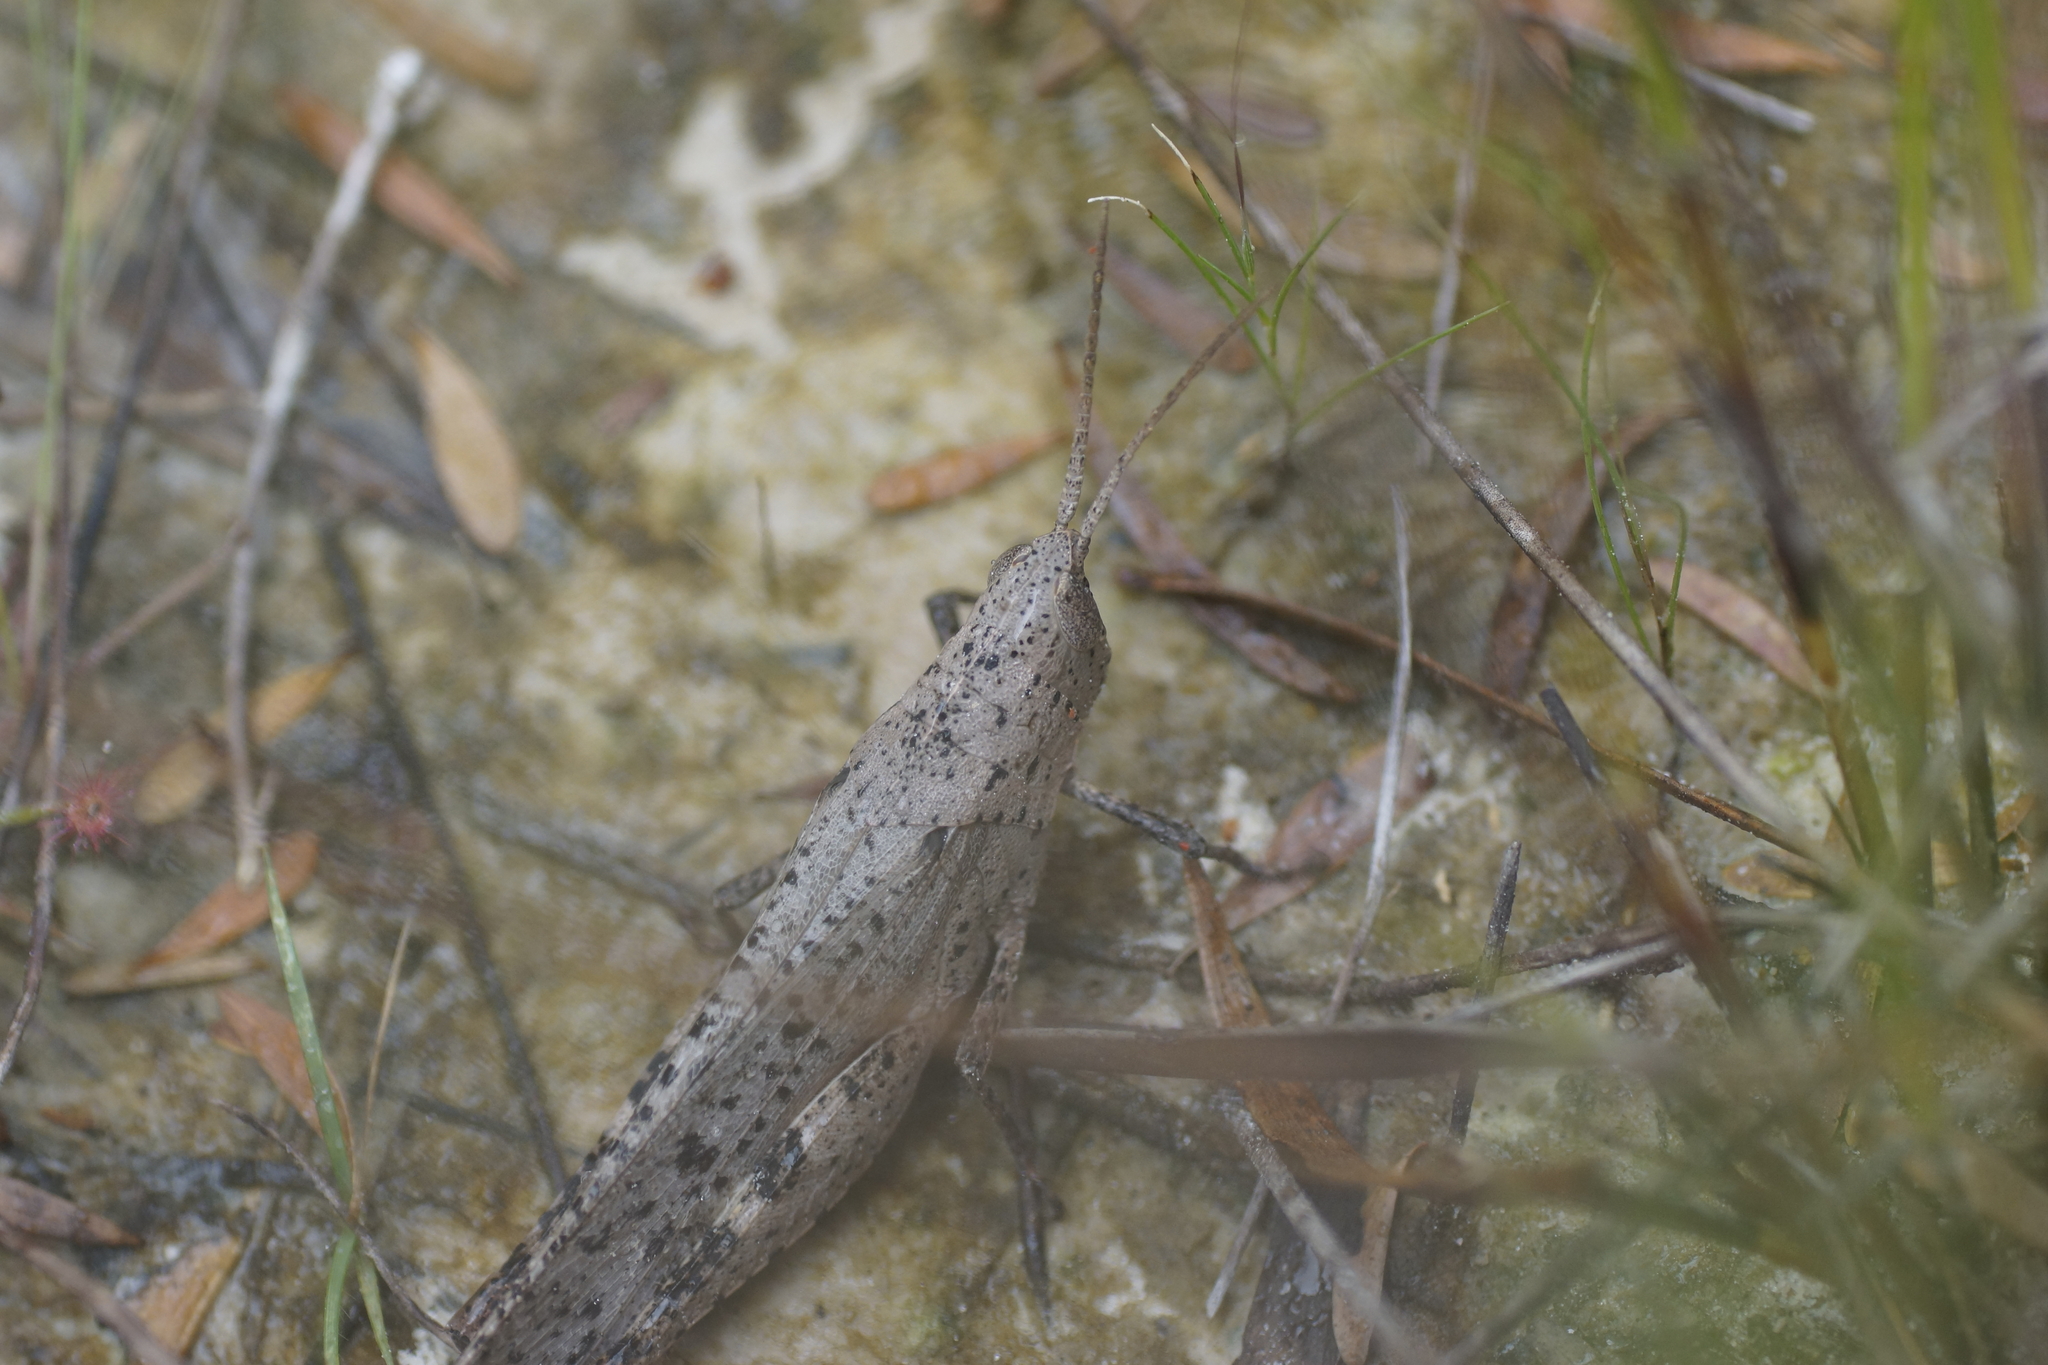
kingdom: Animalia
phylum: Arthropoda
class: Insecta
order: Orthoptera
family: Acrididae
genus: Goniaea
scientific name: Goniaea carinata
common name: Black-kneed gumleaf grasshopper
